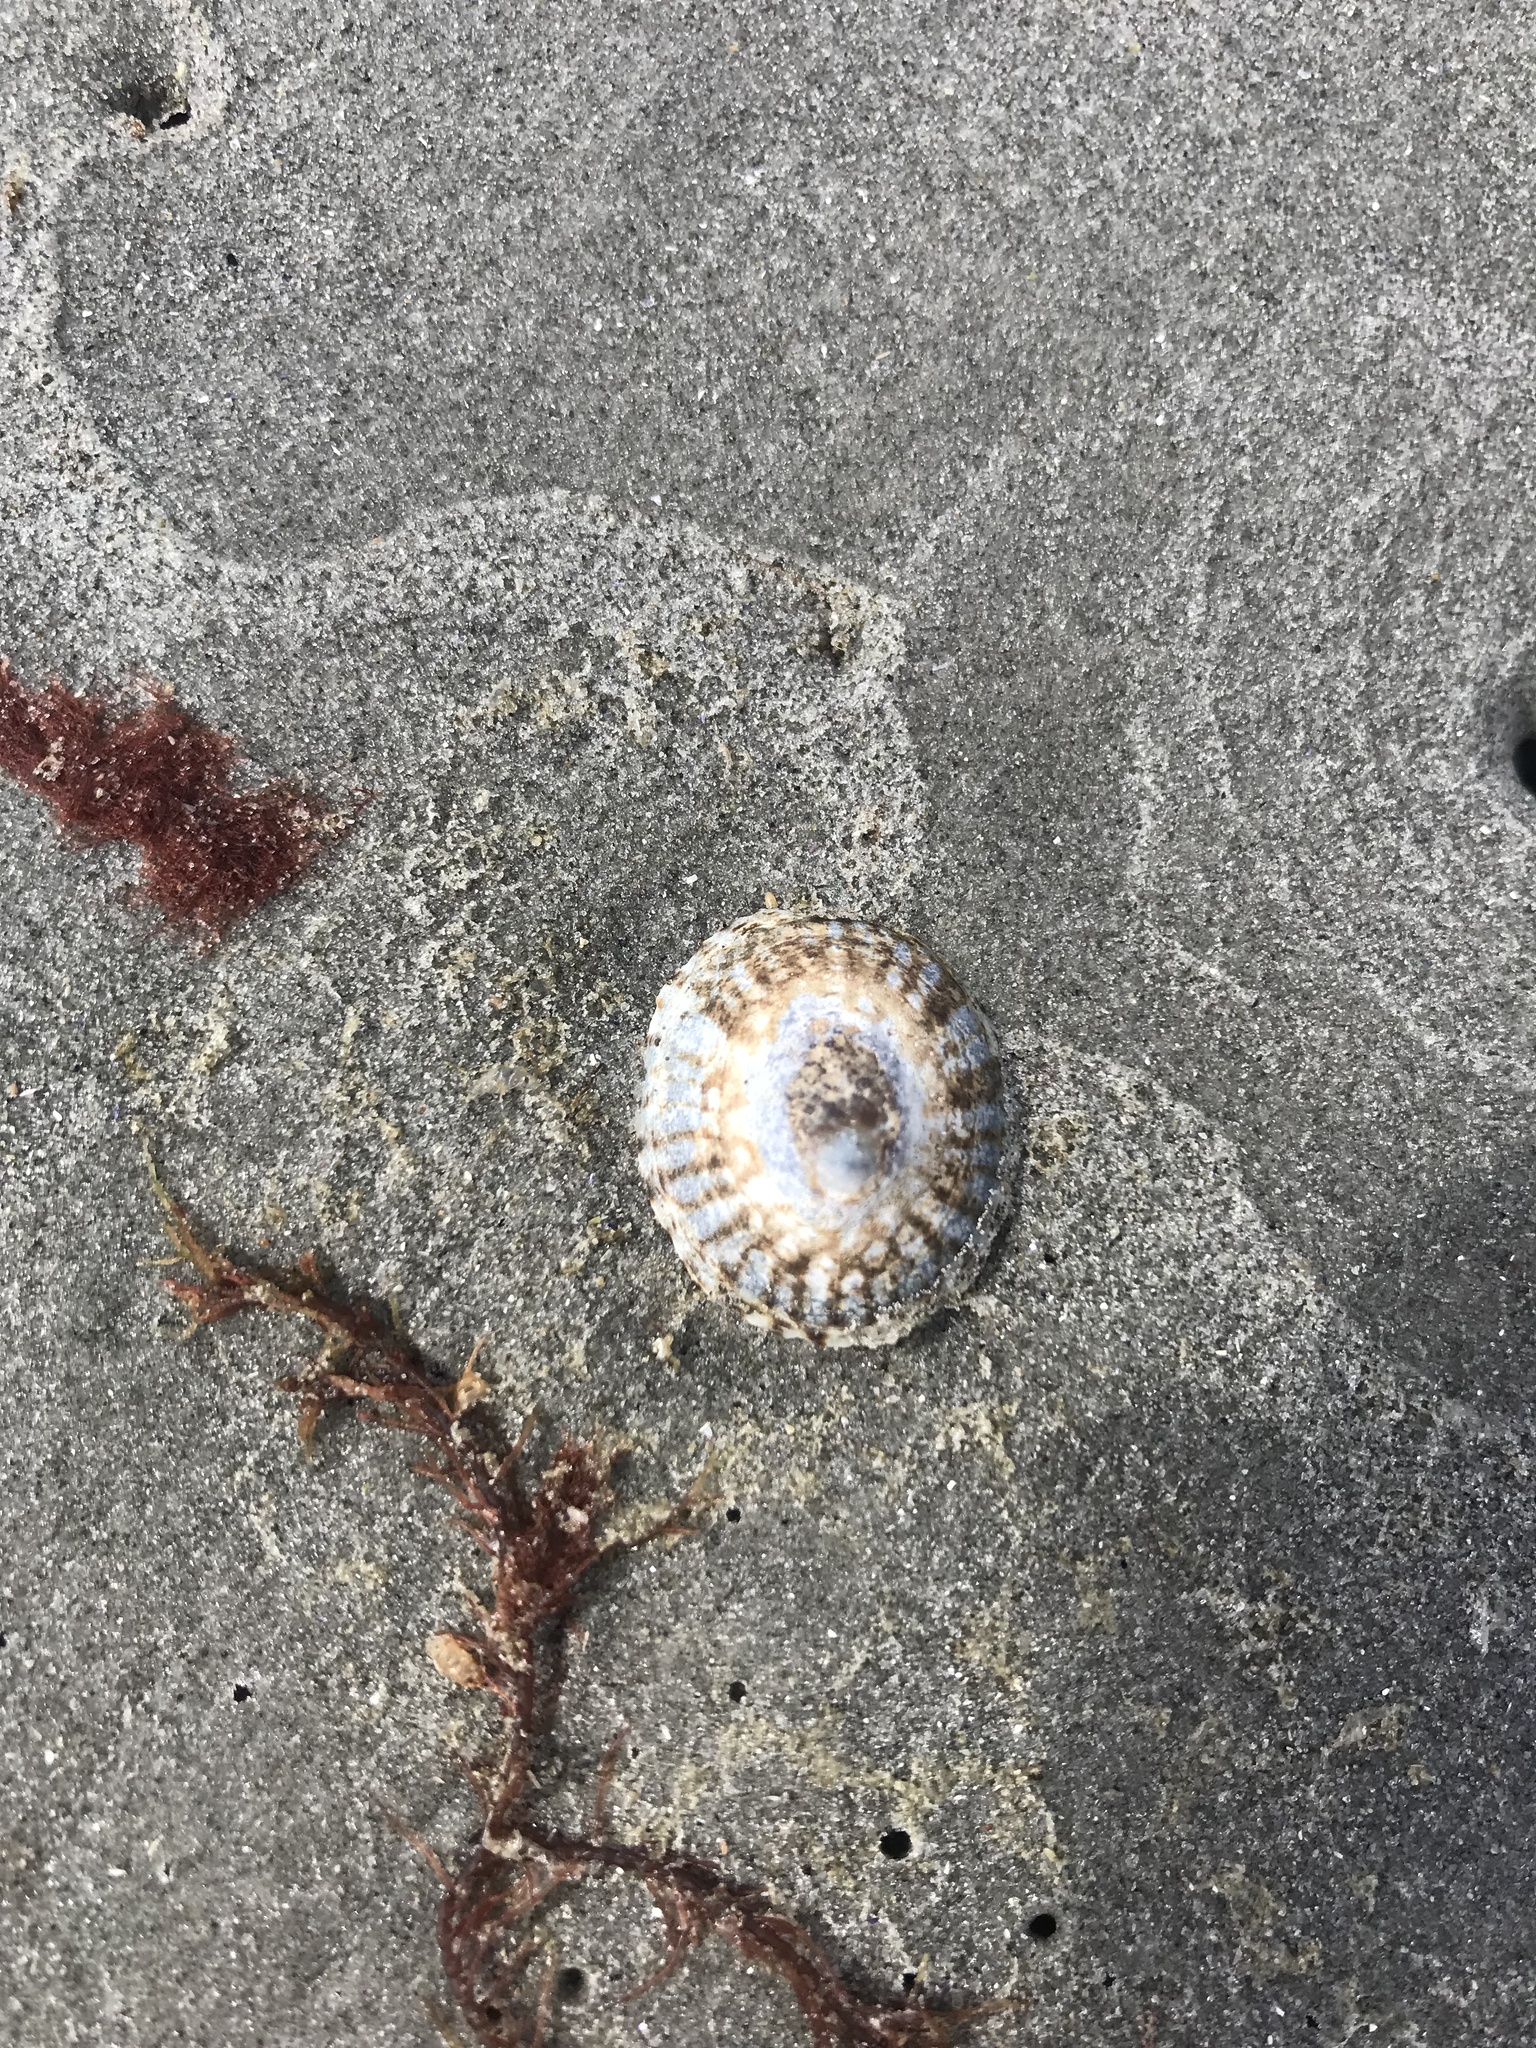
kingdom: Animalia
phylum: Mollusca
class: Gastropoda
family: Lottiidae
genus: Testudinalia
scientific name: Testudinalia testudinalis
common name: Common tortoiseshell limpet
